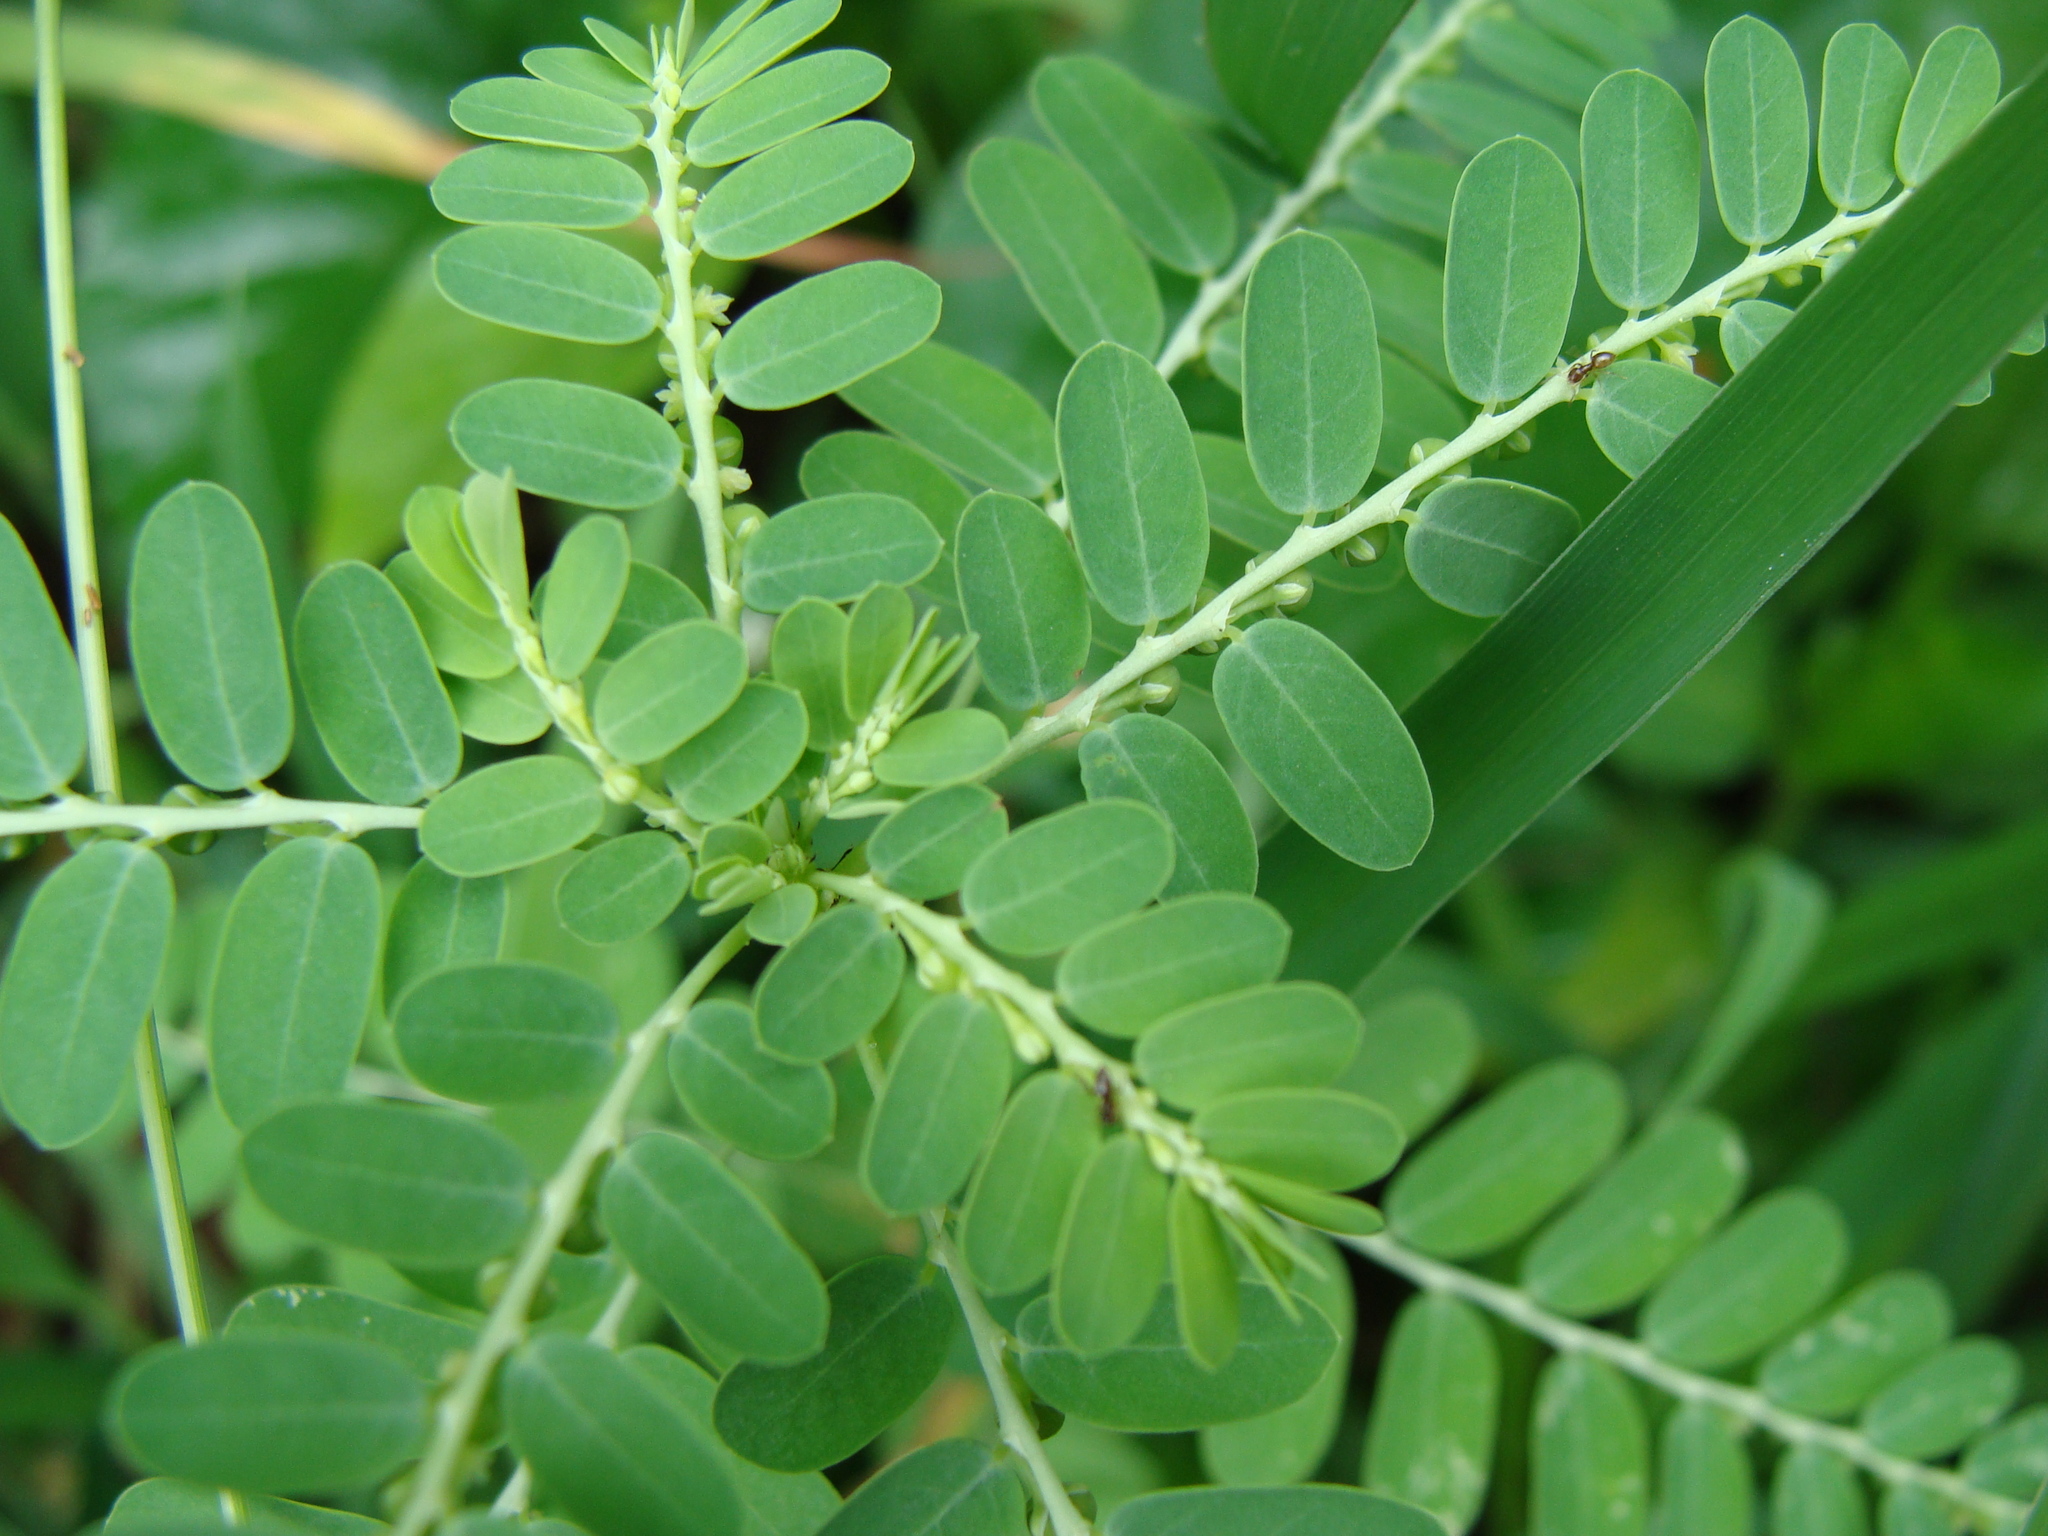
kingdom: Plantae
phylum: Tracheophyta
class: Magnoliopsida
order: Malpighiales
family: Phyllanthaceae
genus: Phyllanthus
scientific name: Phyllanthus niruri
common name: Niruri
